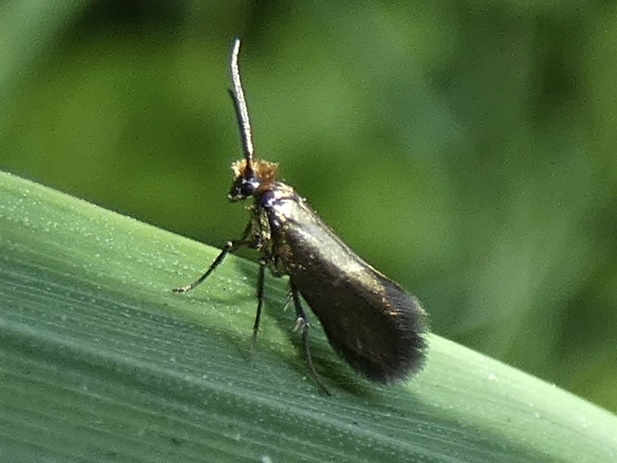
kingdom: Animalia
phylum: Arthropoda
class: Insecta
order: Lepidoptera
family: Micropterigidae
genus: Micropterix
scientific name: Micropterix calthella
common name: Plain gold
